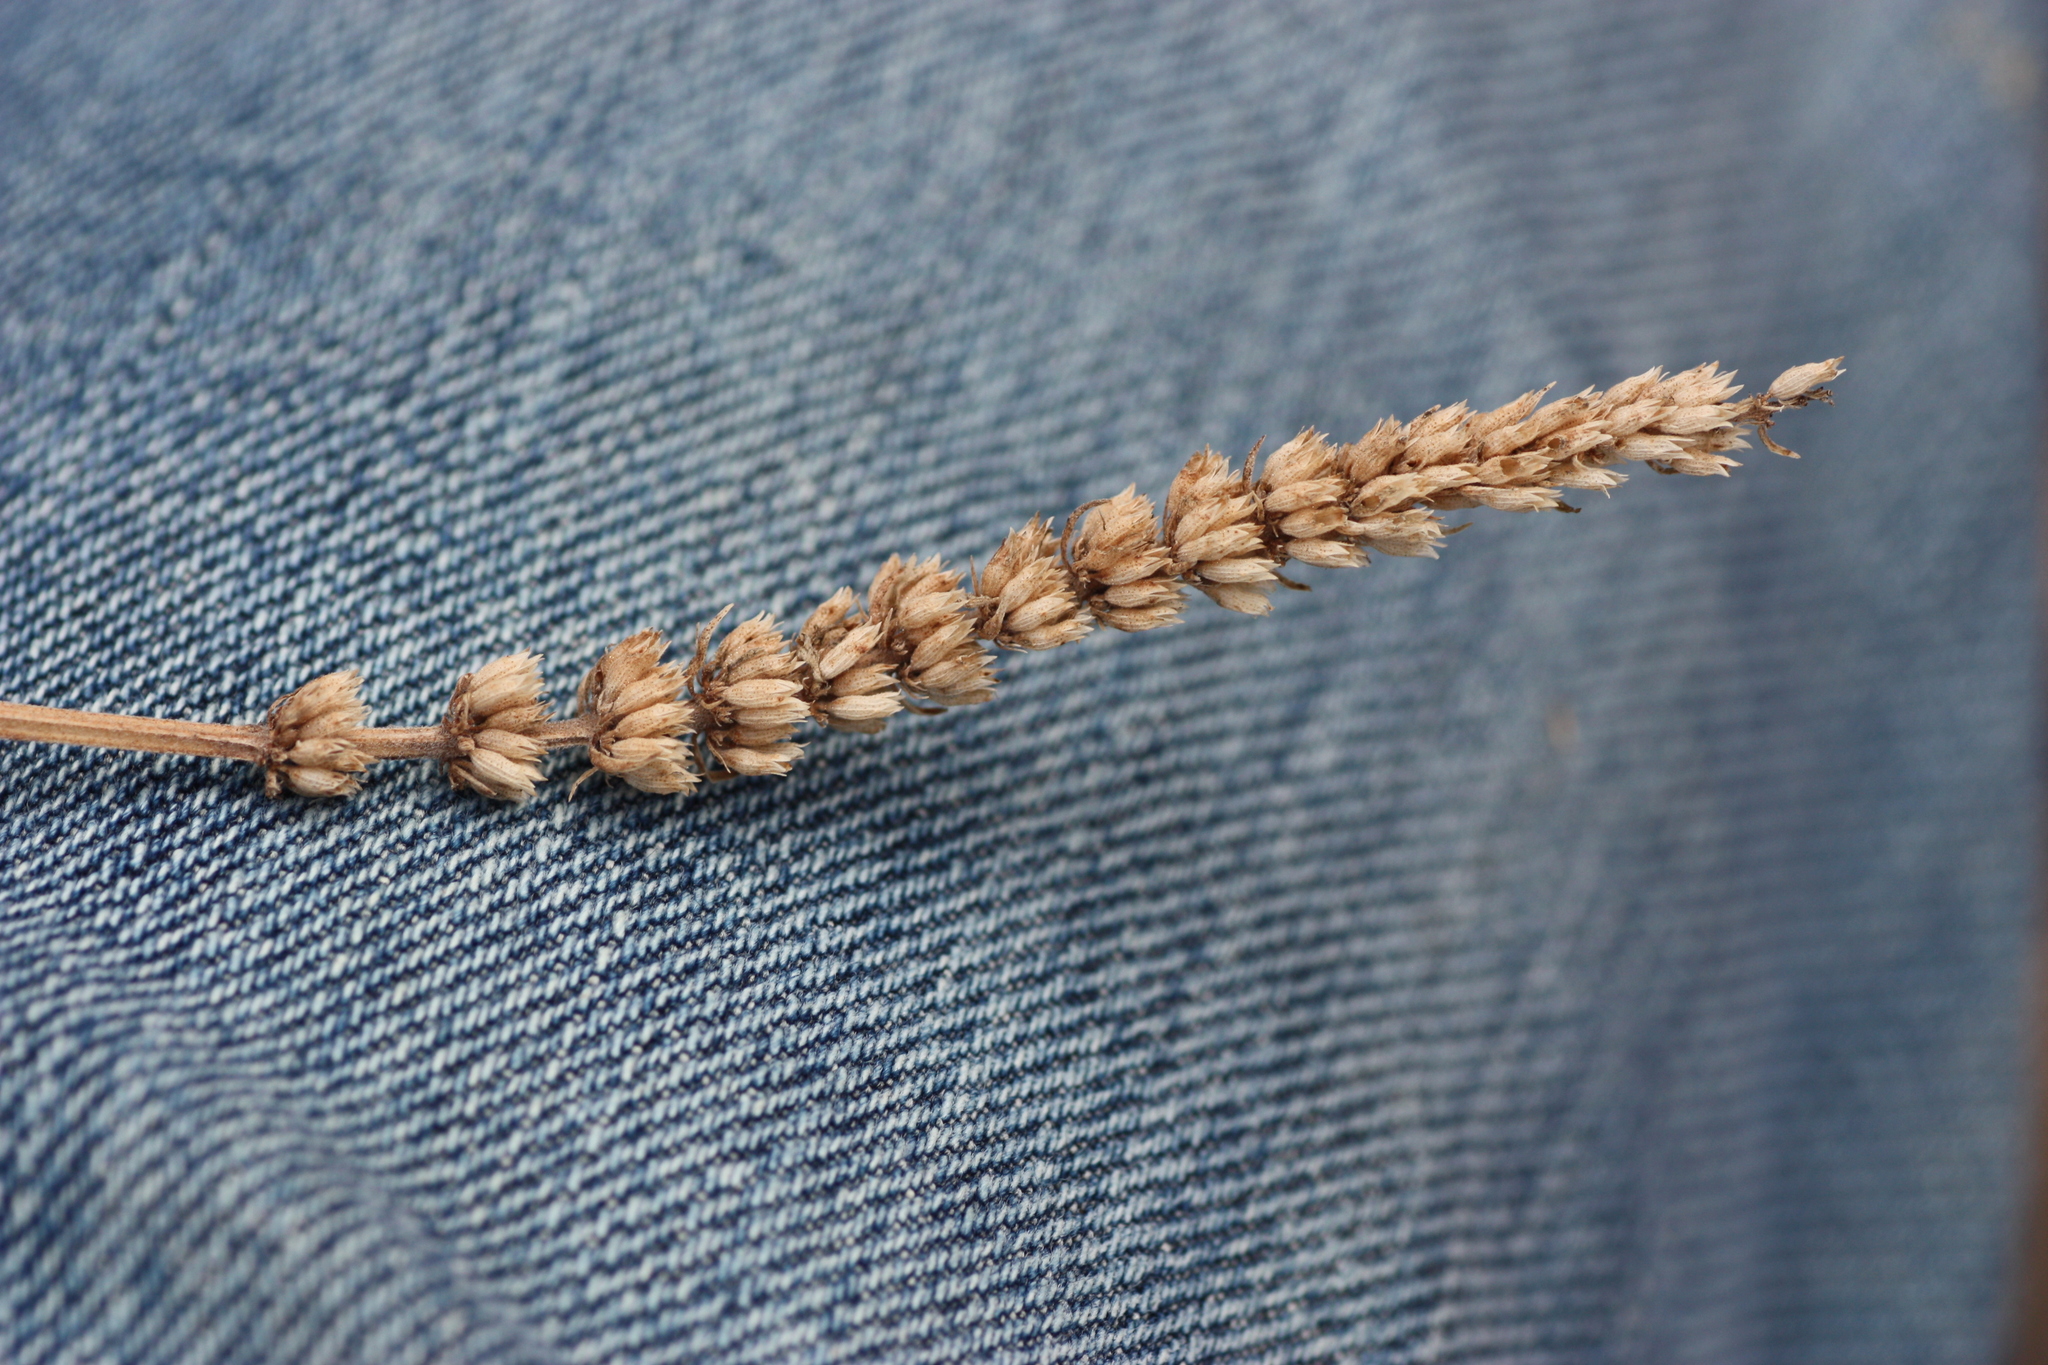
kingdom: Plantae
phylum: Tracheophyta
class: Magnoliopsida
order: Lamiales
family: Lamiaceae
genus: Agastache
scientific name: Agastache micrantha
